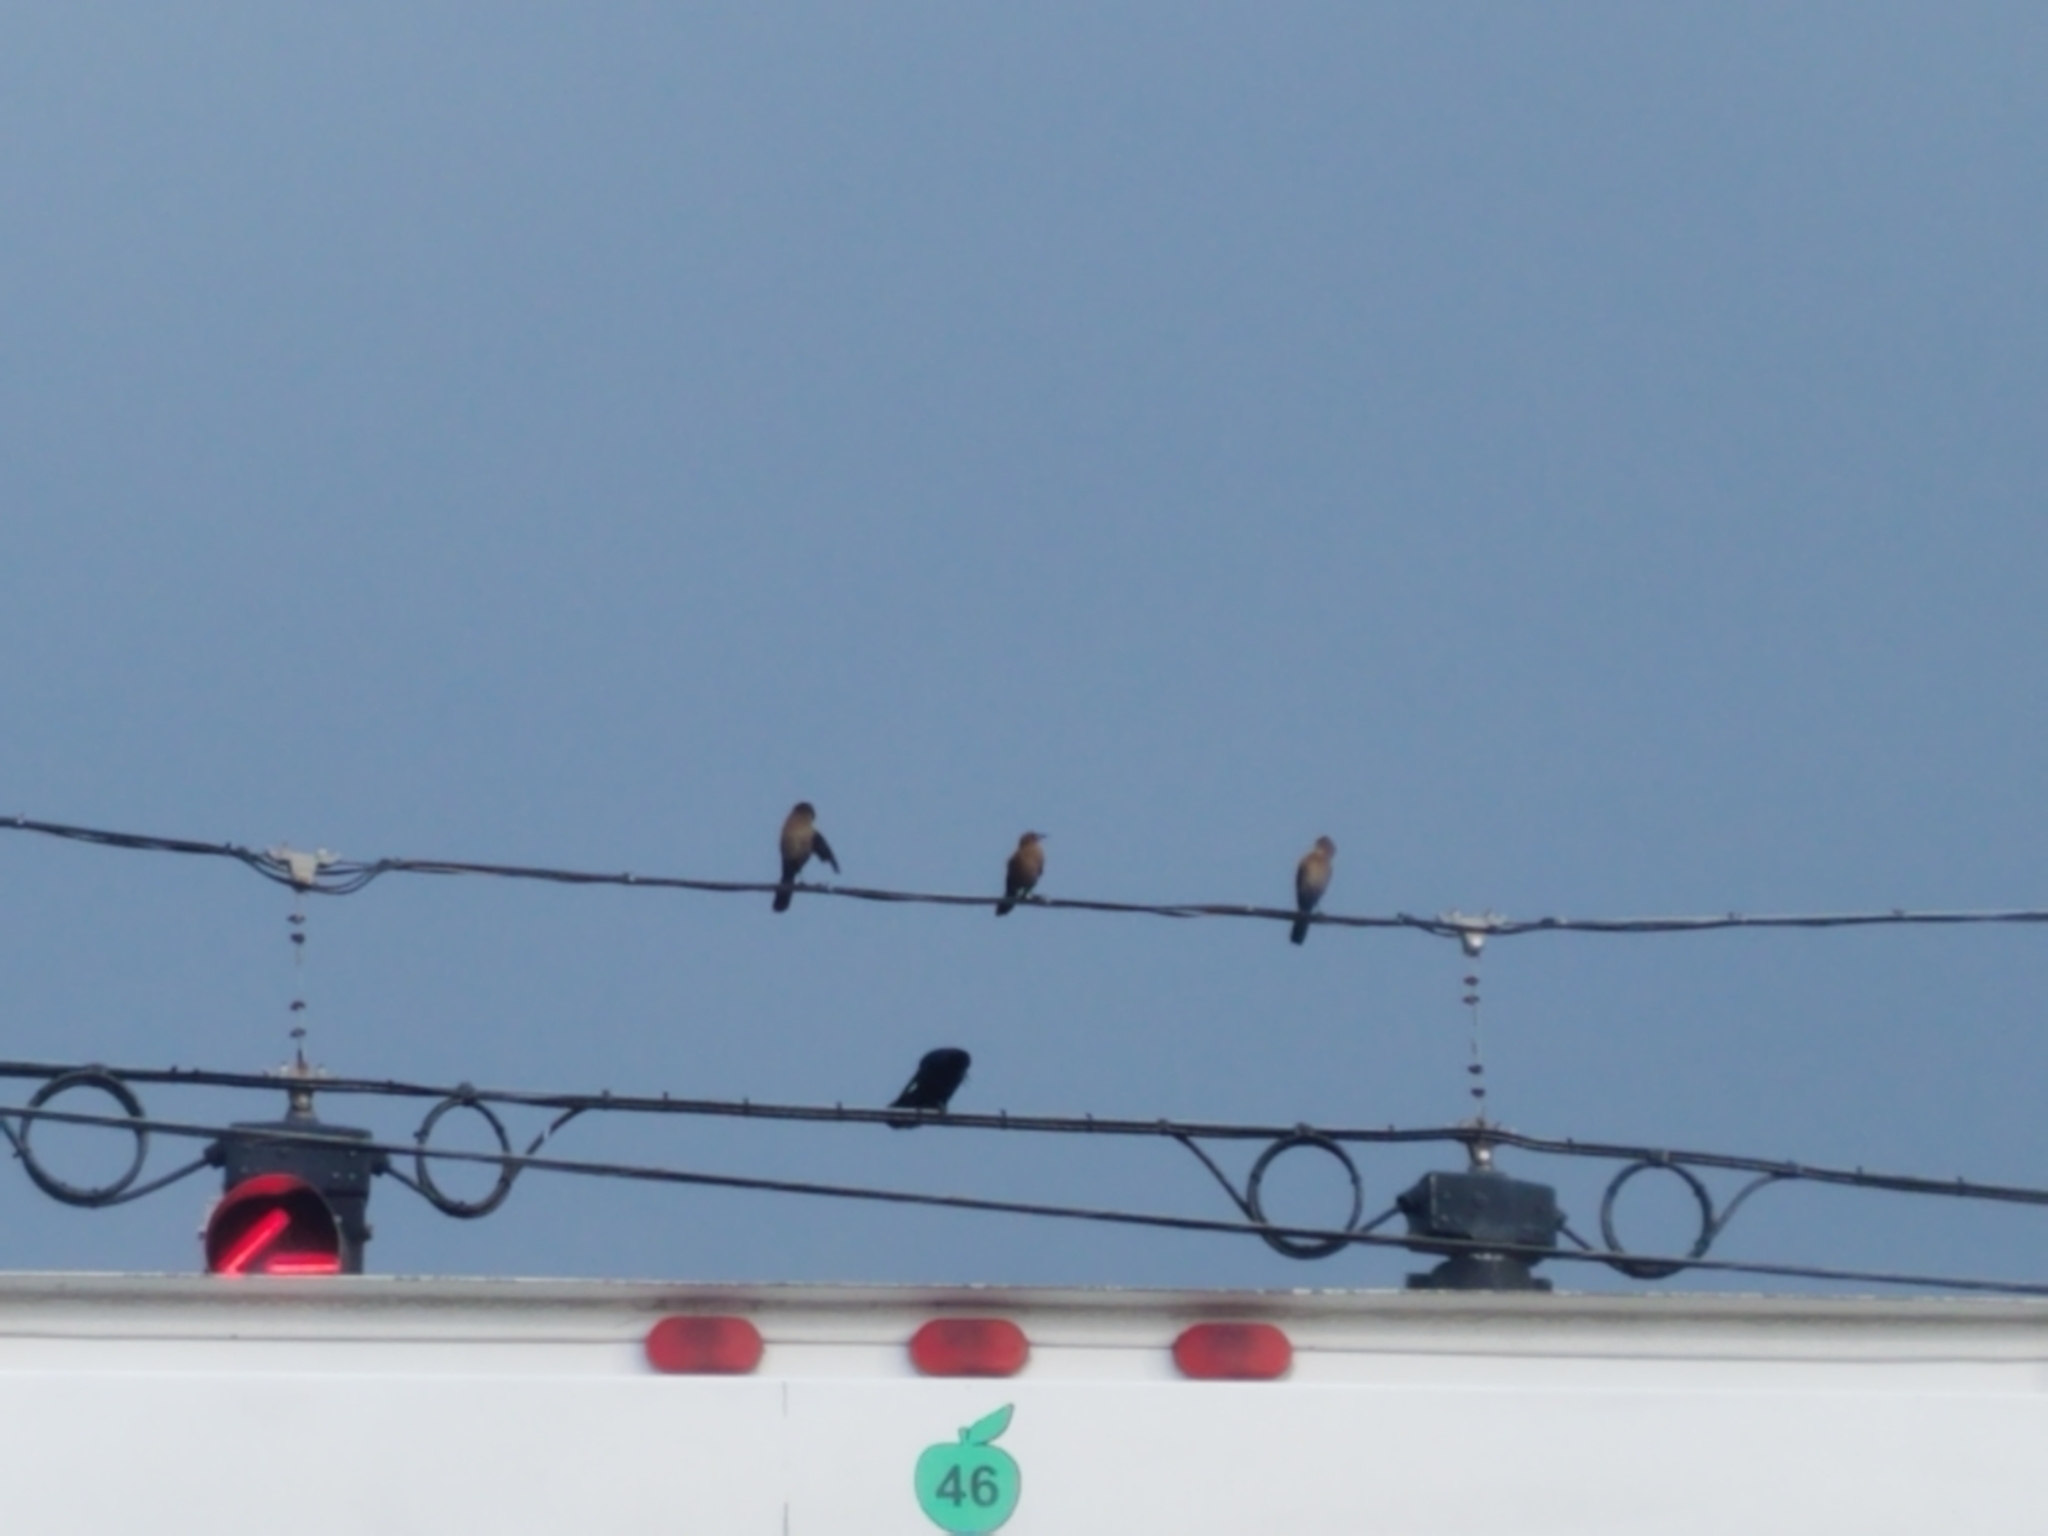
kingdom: Animalia
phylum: Chordata
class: Aves
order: Passeriformes
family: Icteridae
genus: Quiscalus
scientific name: Quiscalus major
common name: Boat-tailed grackle
